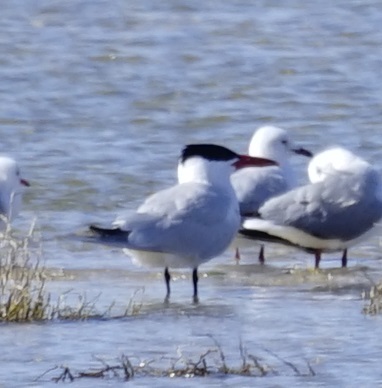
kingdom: Animalia
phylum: Chordata
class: Aves
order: Charadriiformes
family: Laridae
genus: Hydroprogne
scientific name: Hydroprogne caspia
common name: Caspian tern
